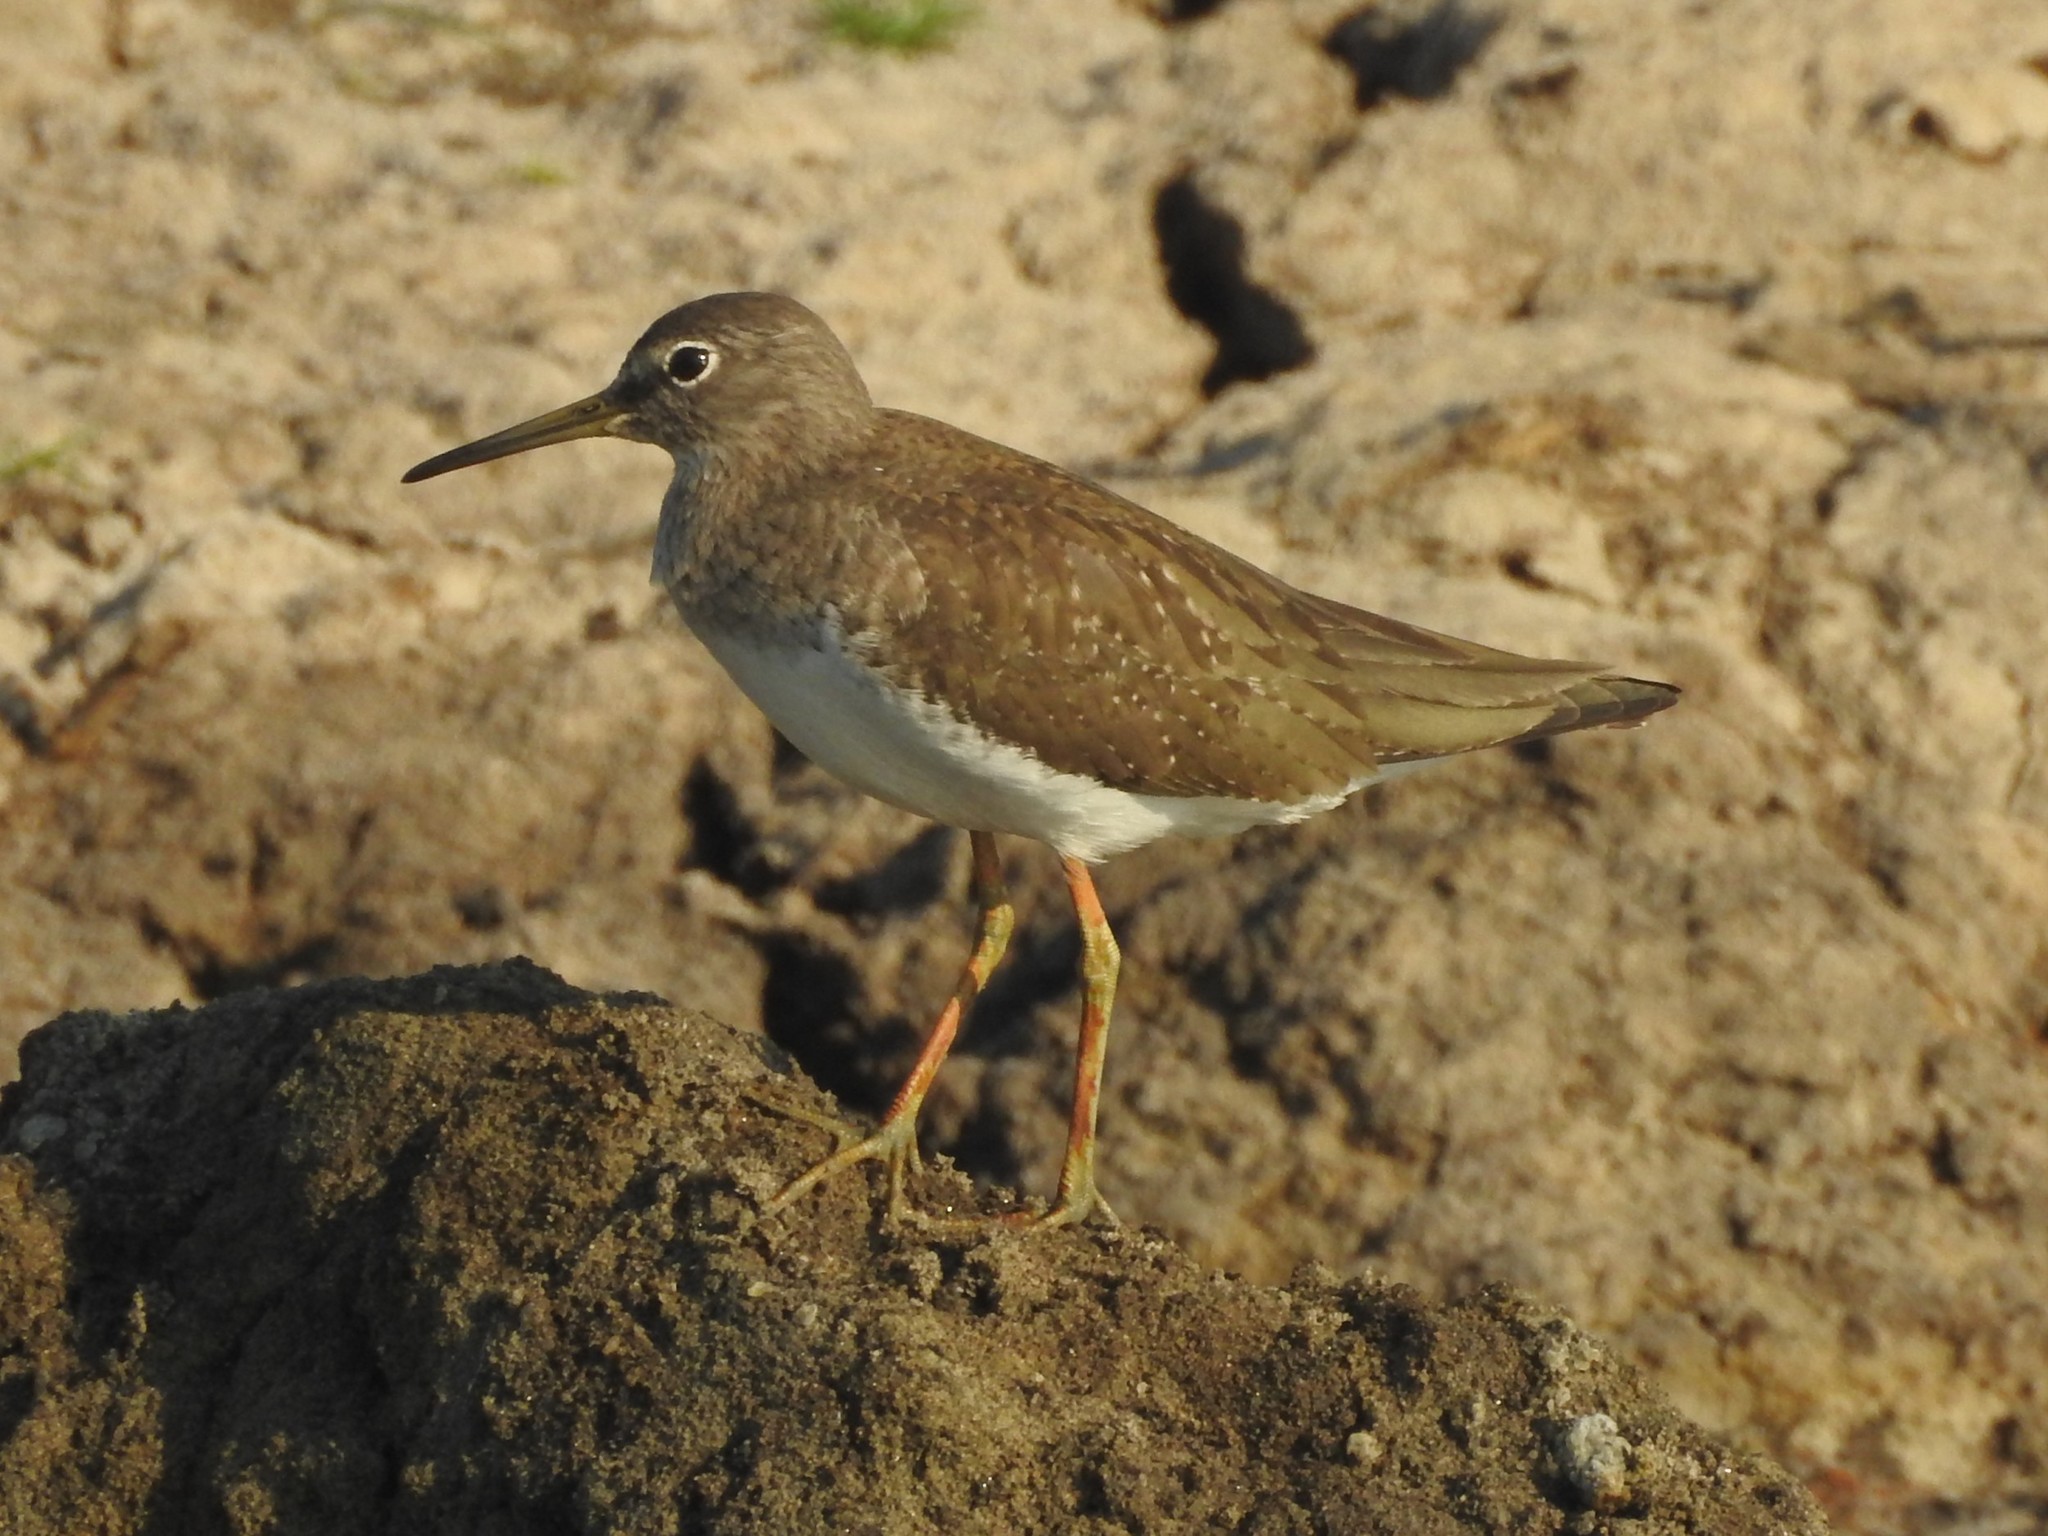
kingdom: Animalia
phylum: Chordata
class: Aves
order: Charadriiformes
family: Scolopacidae
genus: Tringa
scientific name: Tringa ochropus
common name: Green sandpiper
